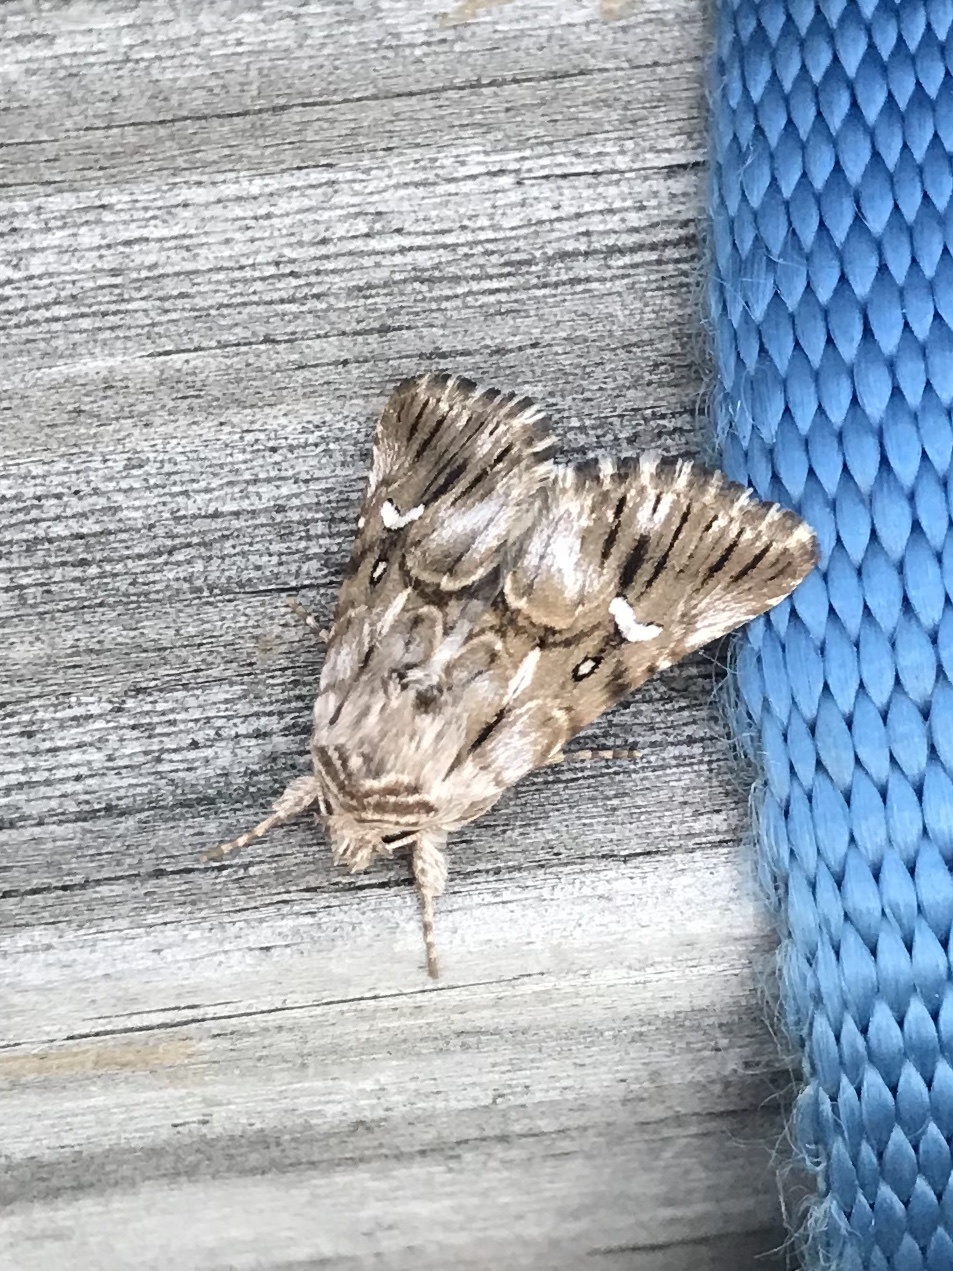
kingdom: Animalia
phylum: Arthropoda
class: Insecta
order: Lepidoptera
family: Noctuidae
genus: Calophasia
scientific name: Calophasia lunula
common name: Toadflax brocade
